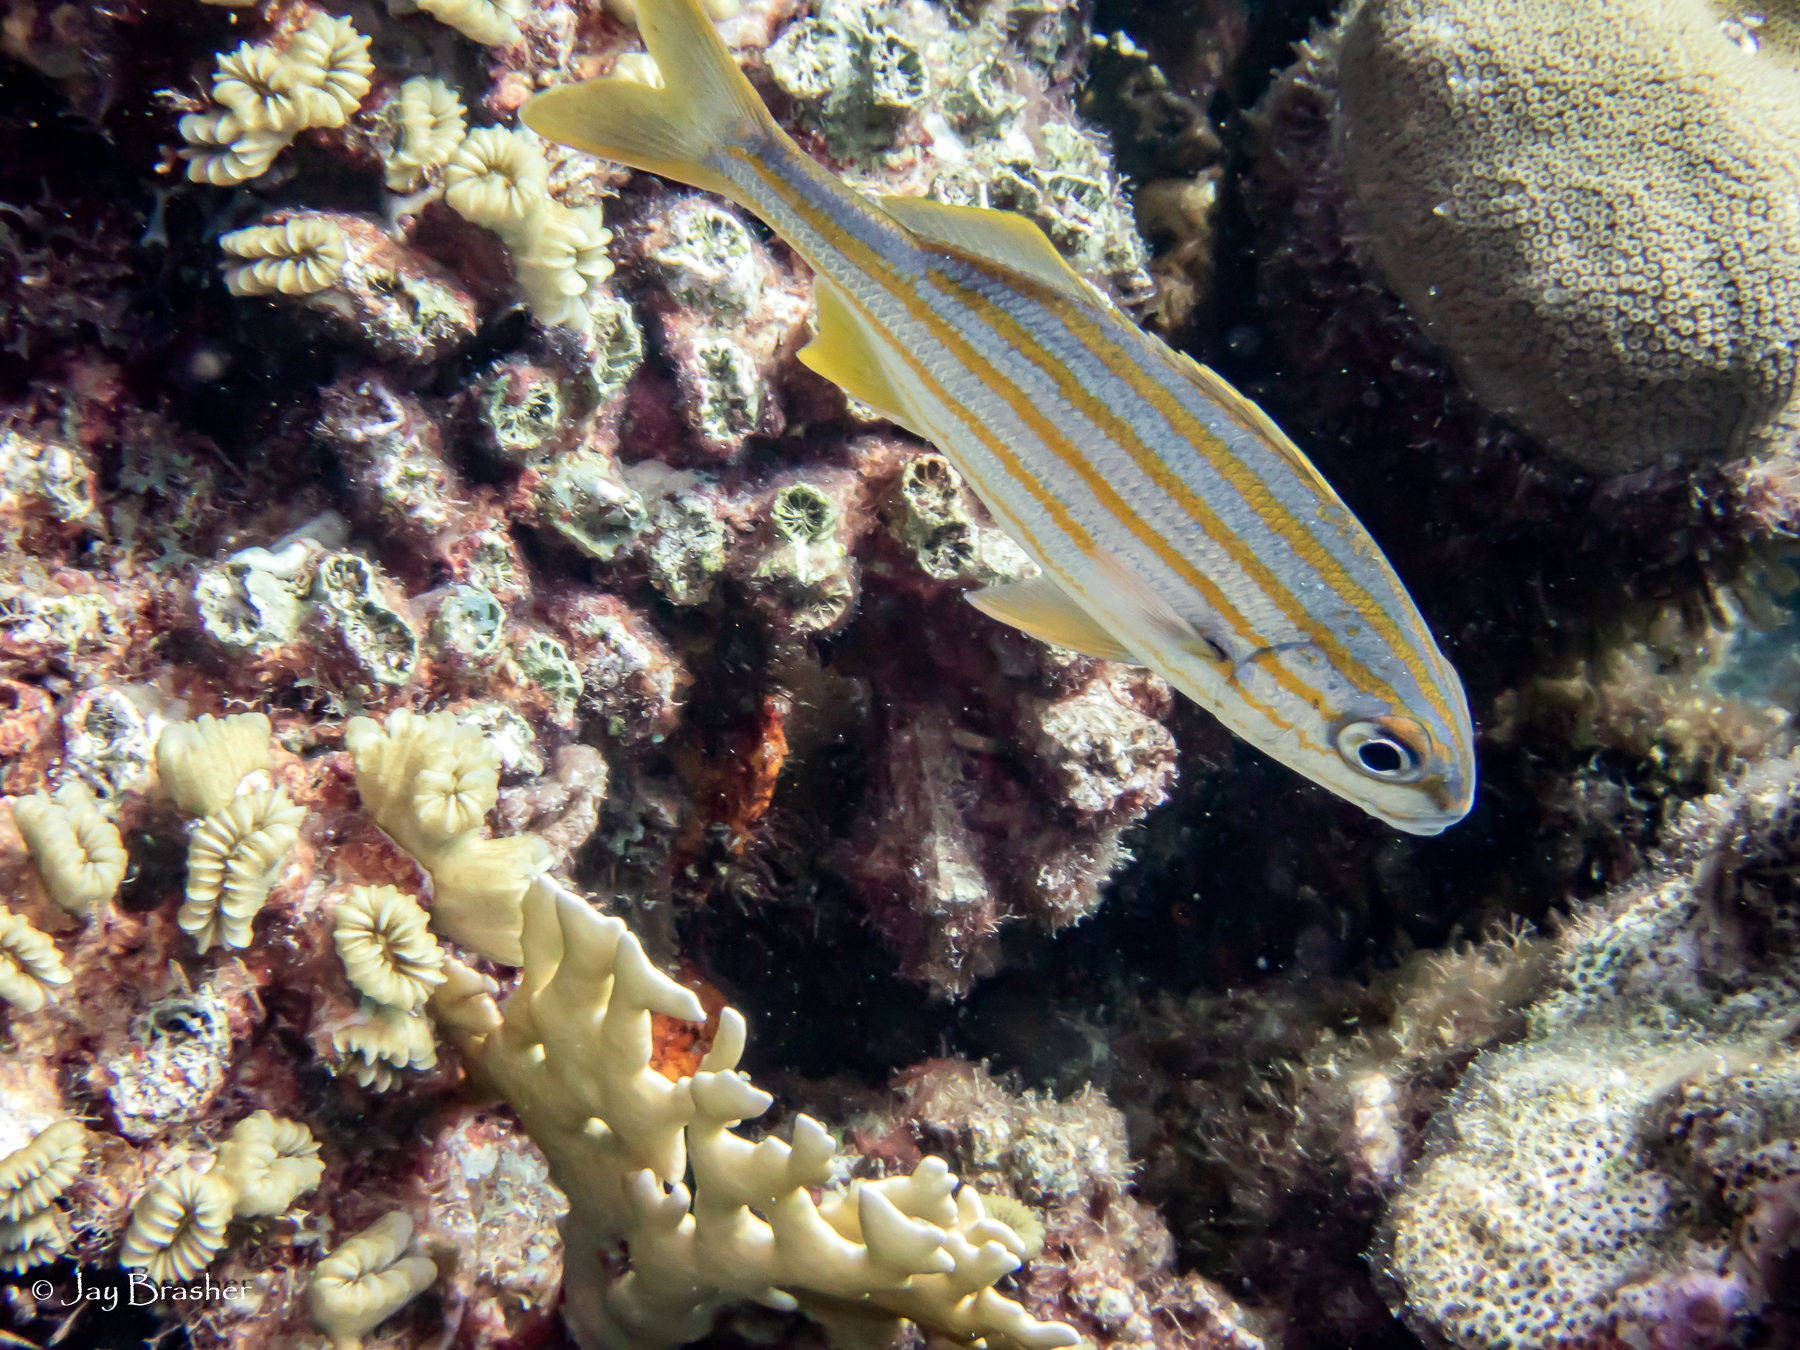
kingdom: Animalia
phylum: Cnidaria
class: Anthozoa
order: Scleractinia
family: Meandrinidae
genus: Eusmilia
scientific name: Eusmilia fastigiata
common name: Smooth flower coral
